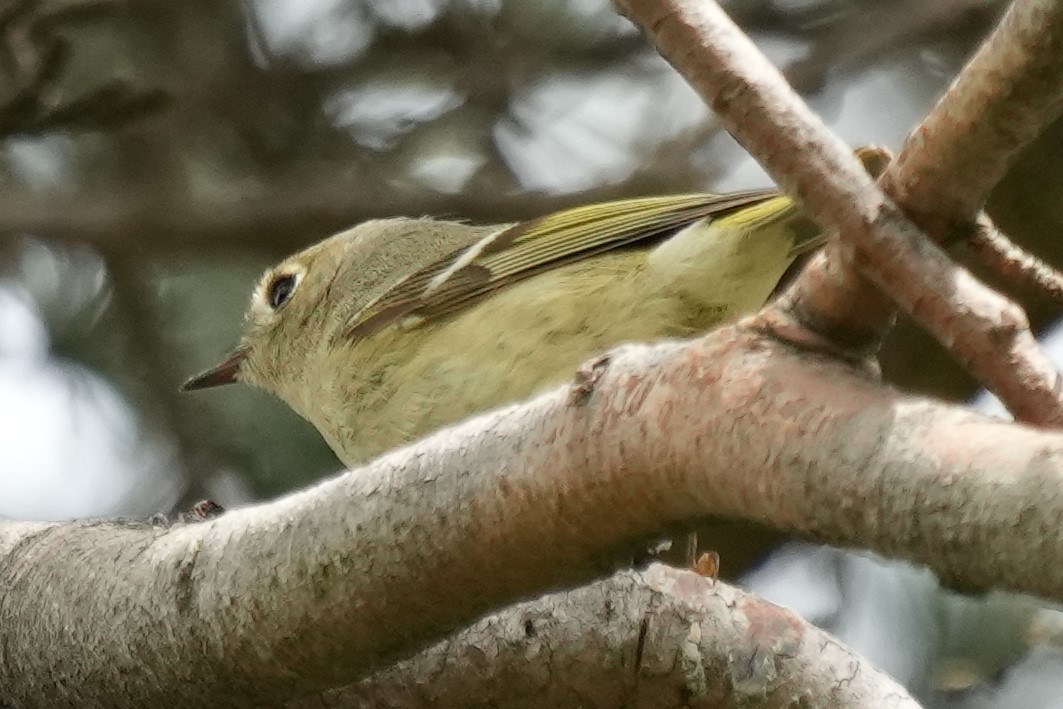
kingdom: Animalia
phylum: Chordata
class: Aves
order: Passeriformes
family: Regulidae
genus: Regulus
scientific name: Regulus calendula
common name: Ruby-crowned kinglet
